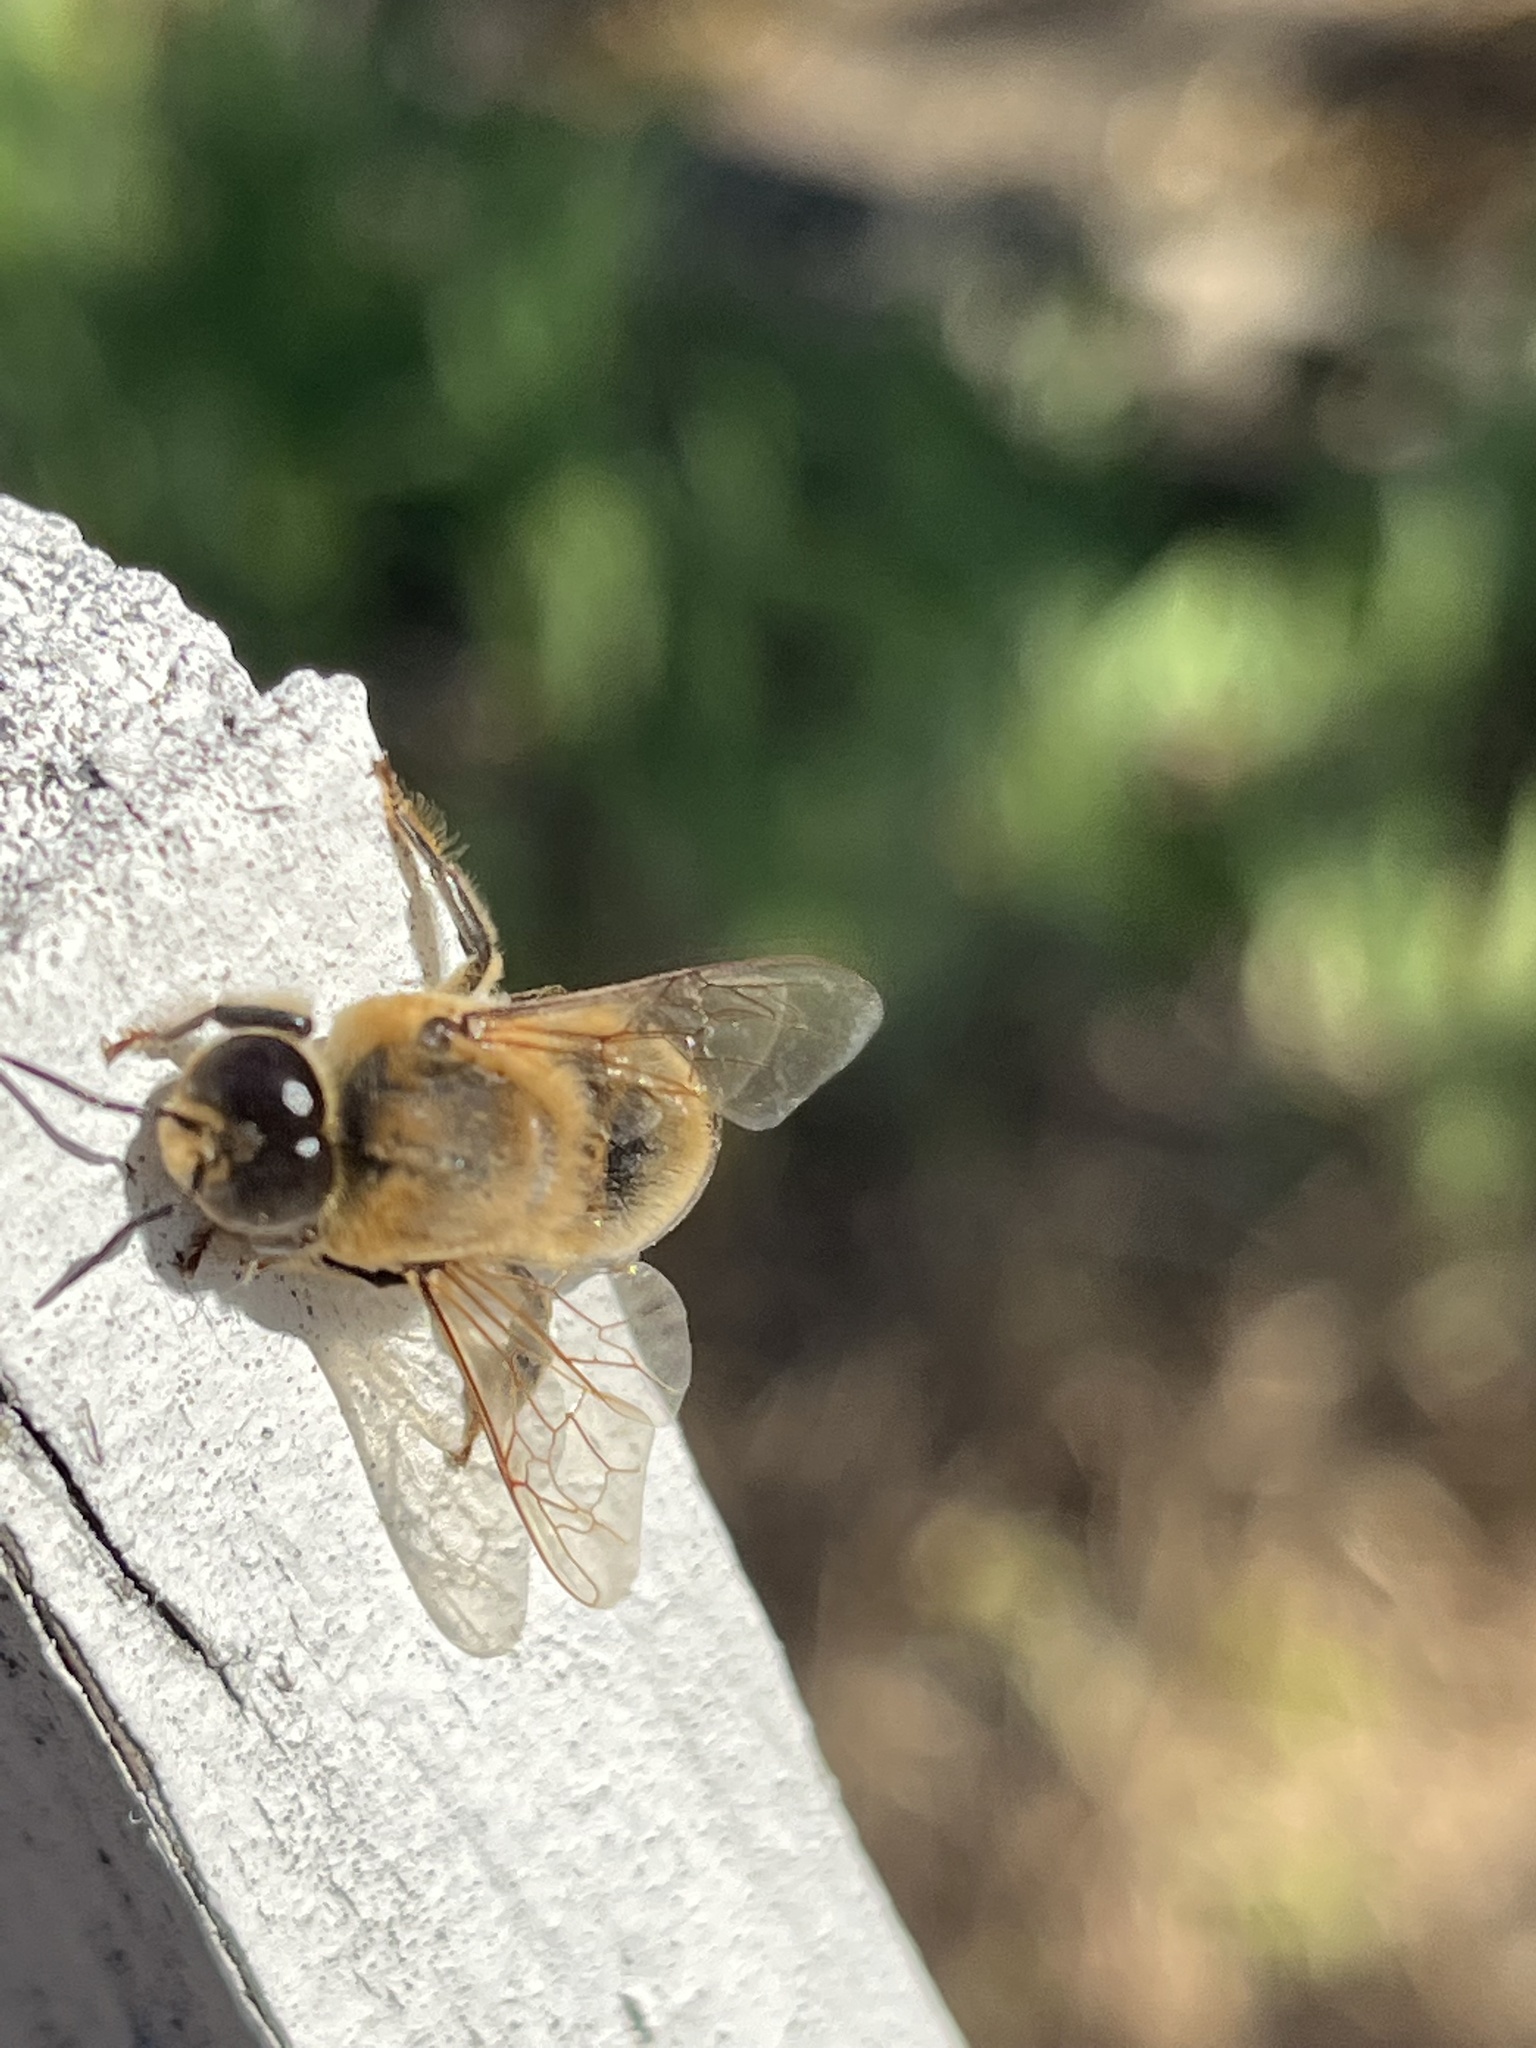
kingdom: Animalia
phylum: Arthropoda
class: Insecta
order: Hymenoptera
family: Apidae
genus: Apis
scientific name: Apis mellifera
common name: Honey bee
